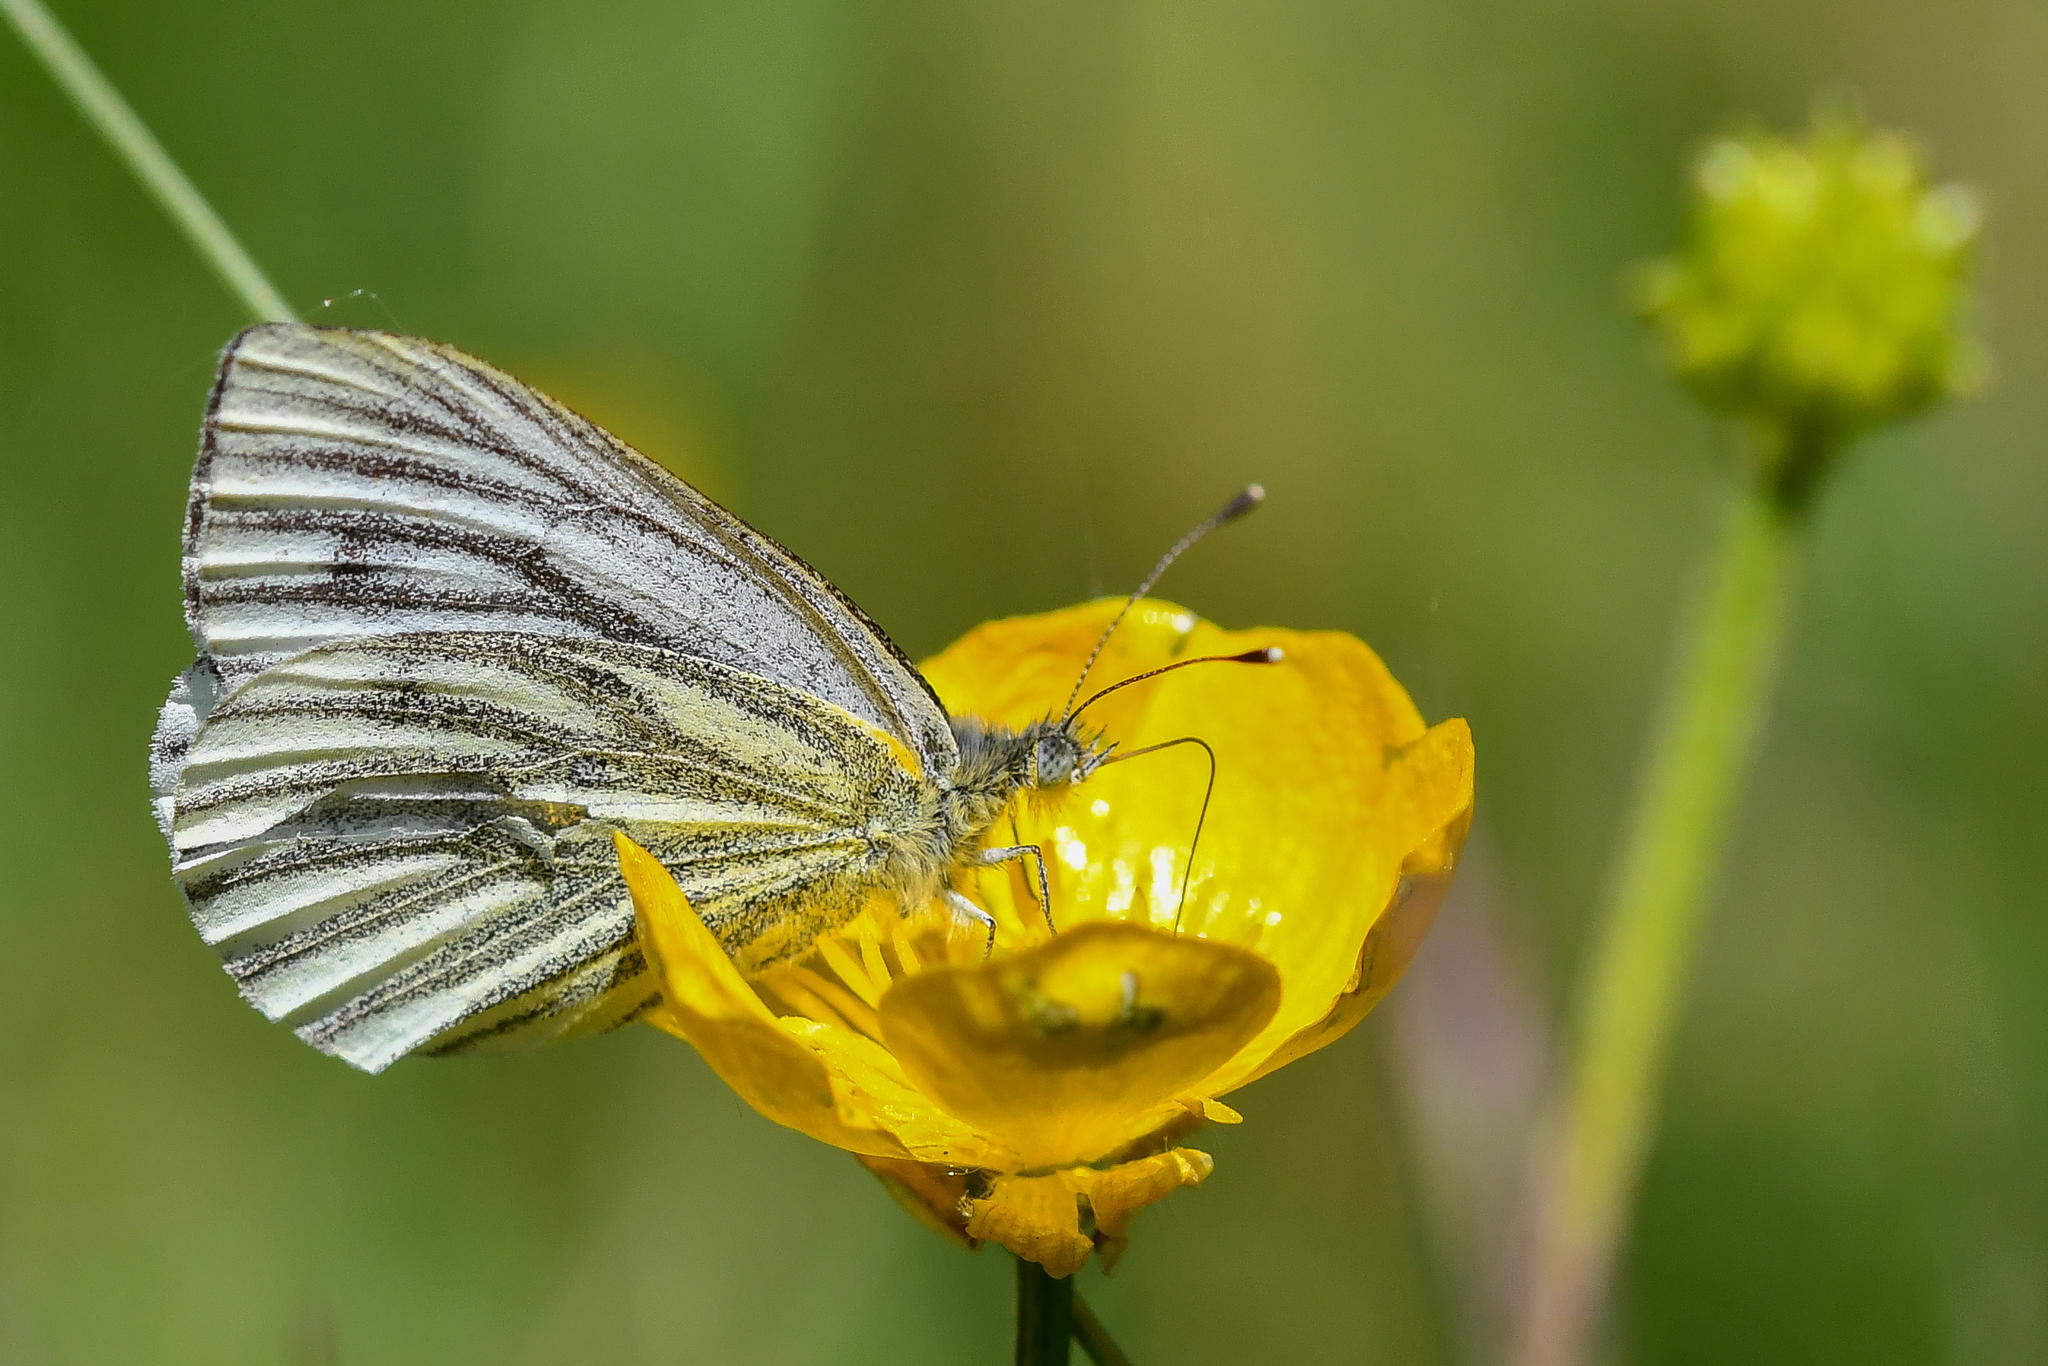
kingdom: Animalia
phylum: Arthropoda
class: Insecta
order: Lepidoptera
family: Pieridae
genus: Pieris
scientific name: Pieris napi
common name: Green-veined white
